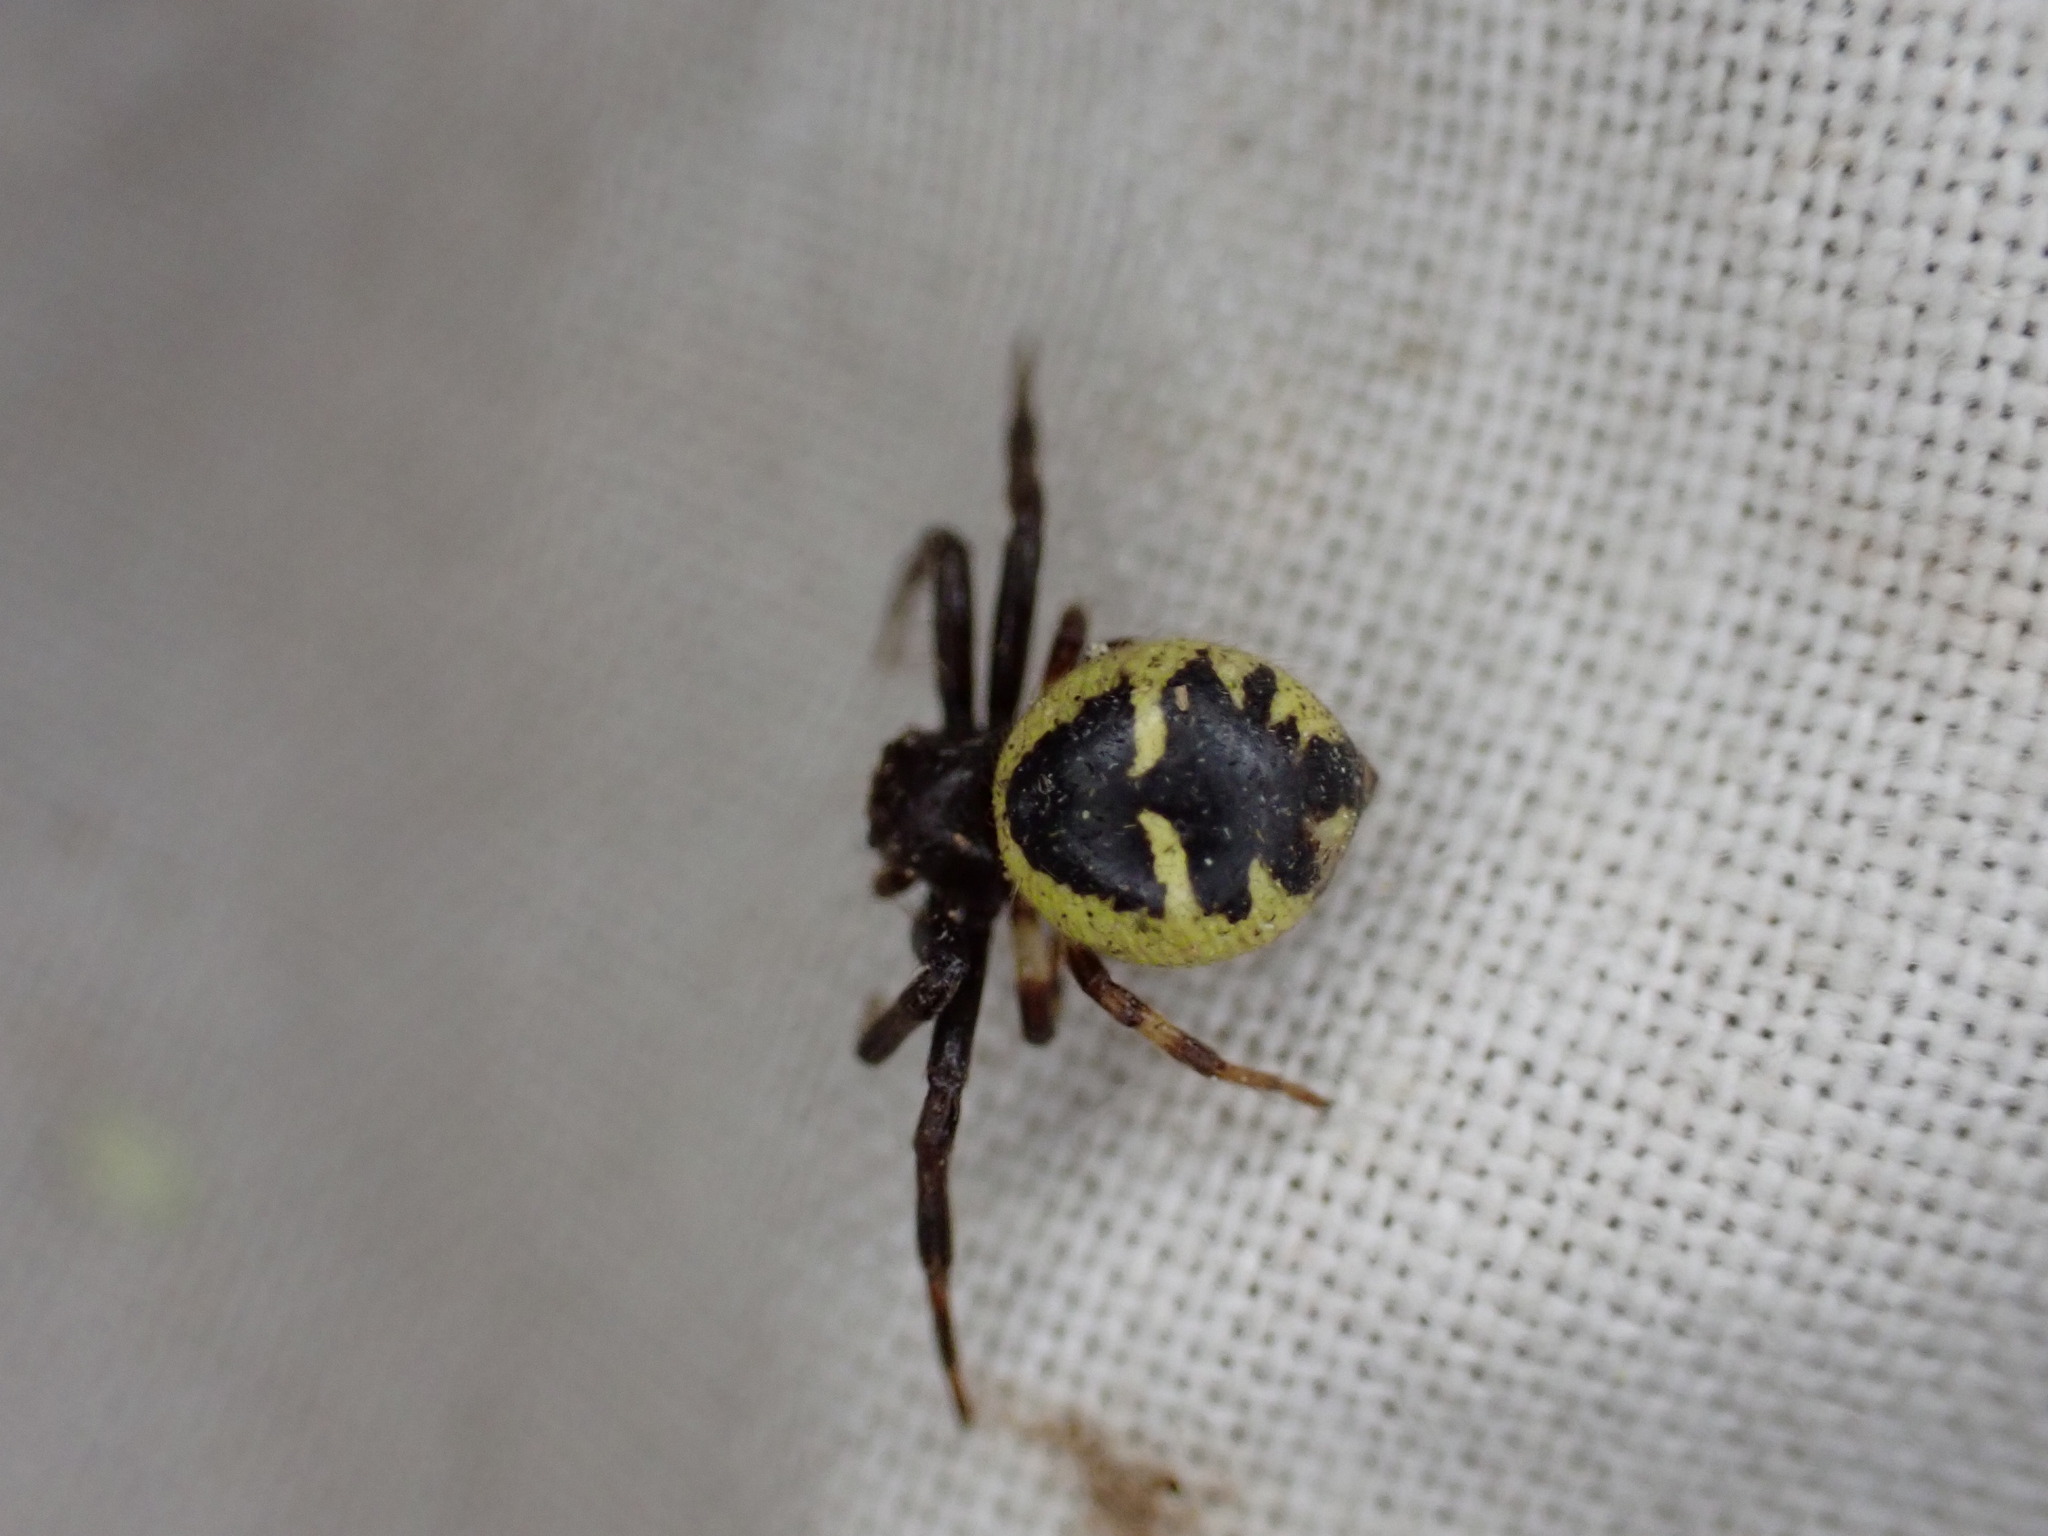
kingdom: Animalia
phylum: Arthropoda
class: Arachnida
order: Araneae
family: Thomisidae
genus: Synema
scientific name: Synema globosum
